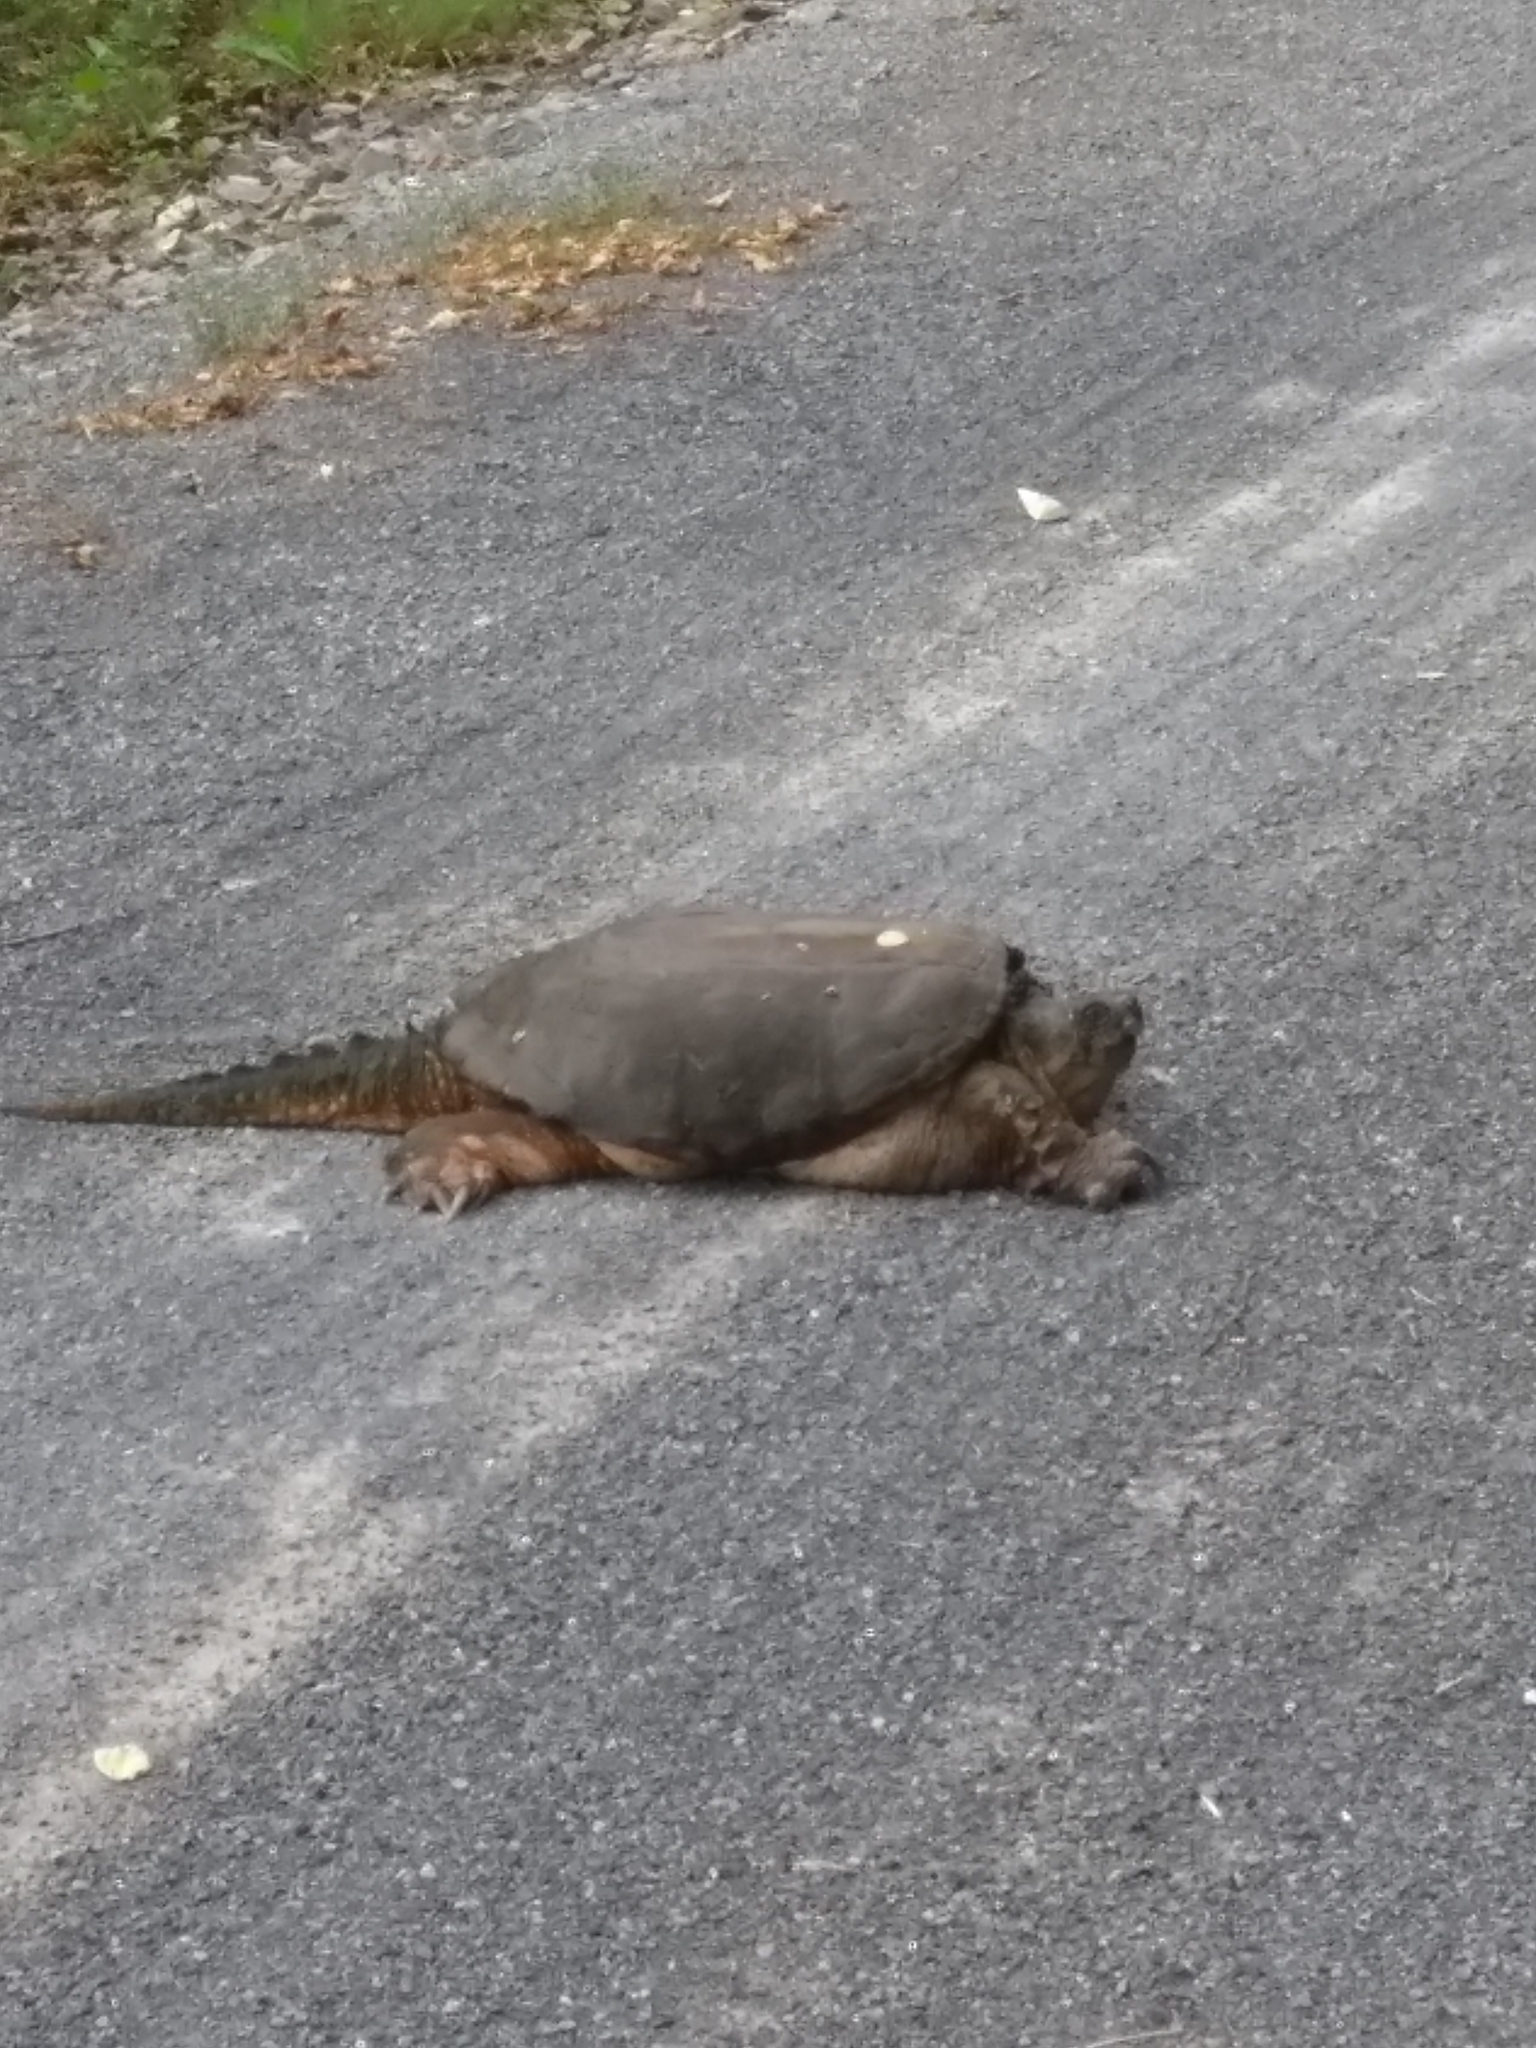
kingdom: Animalia
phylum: Chordata
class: Testudines
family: Chelydridae
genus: Chelydra
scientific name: Chelydra serpentina
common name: Common snapping turtle
